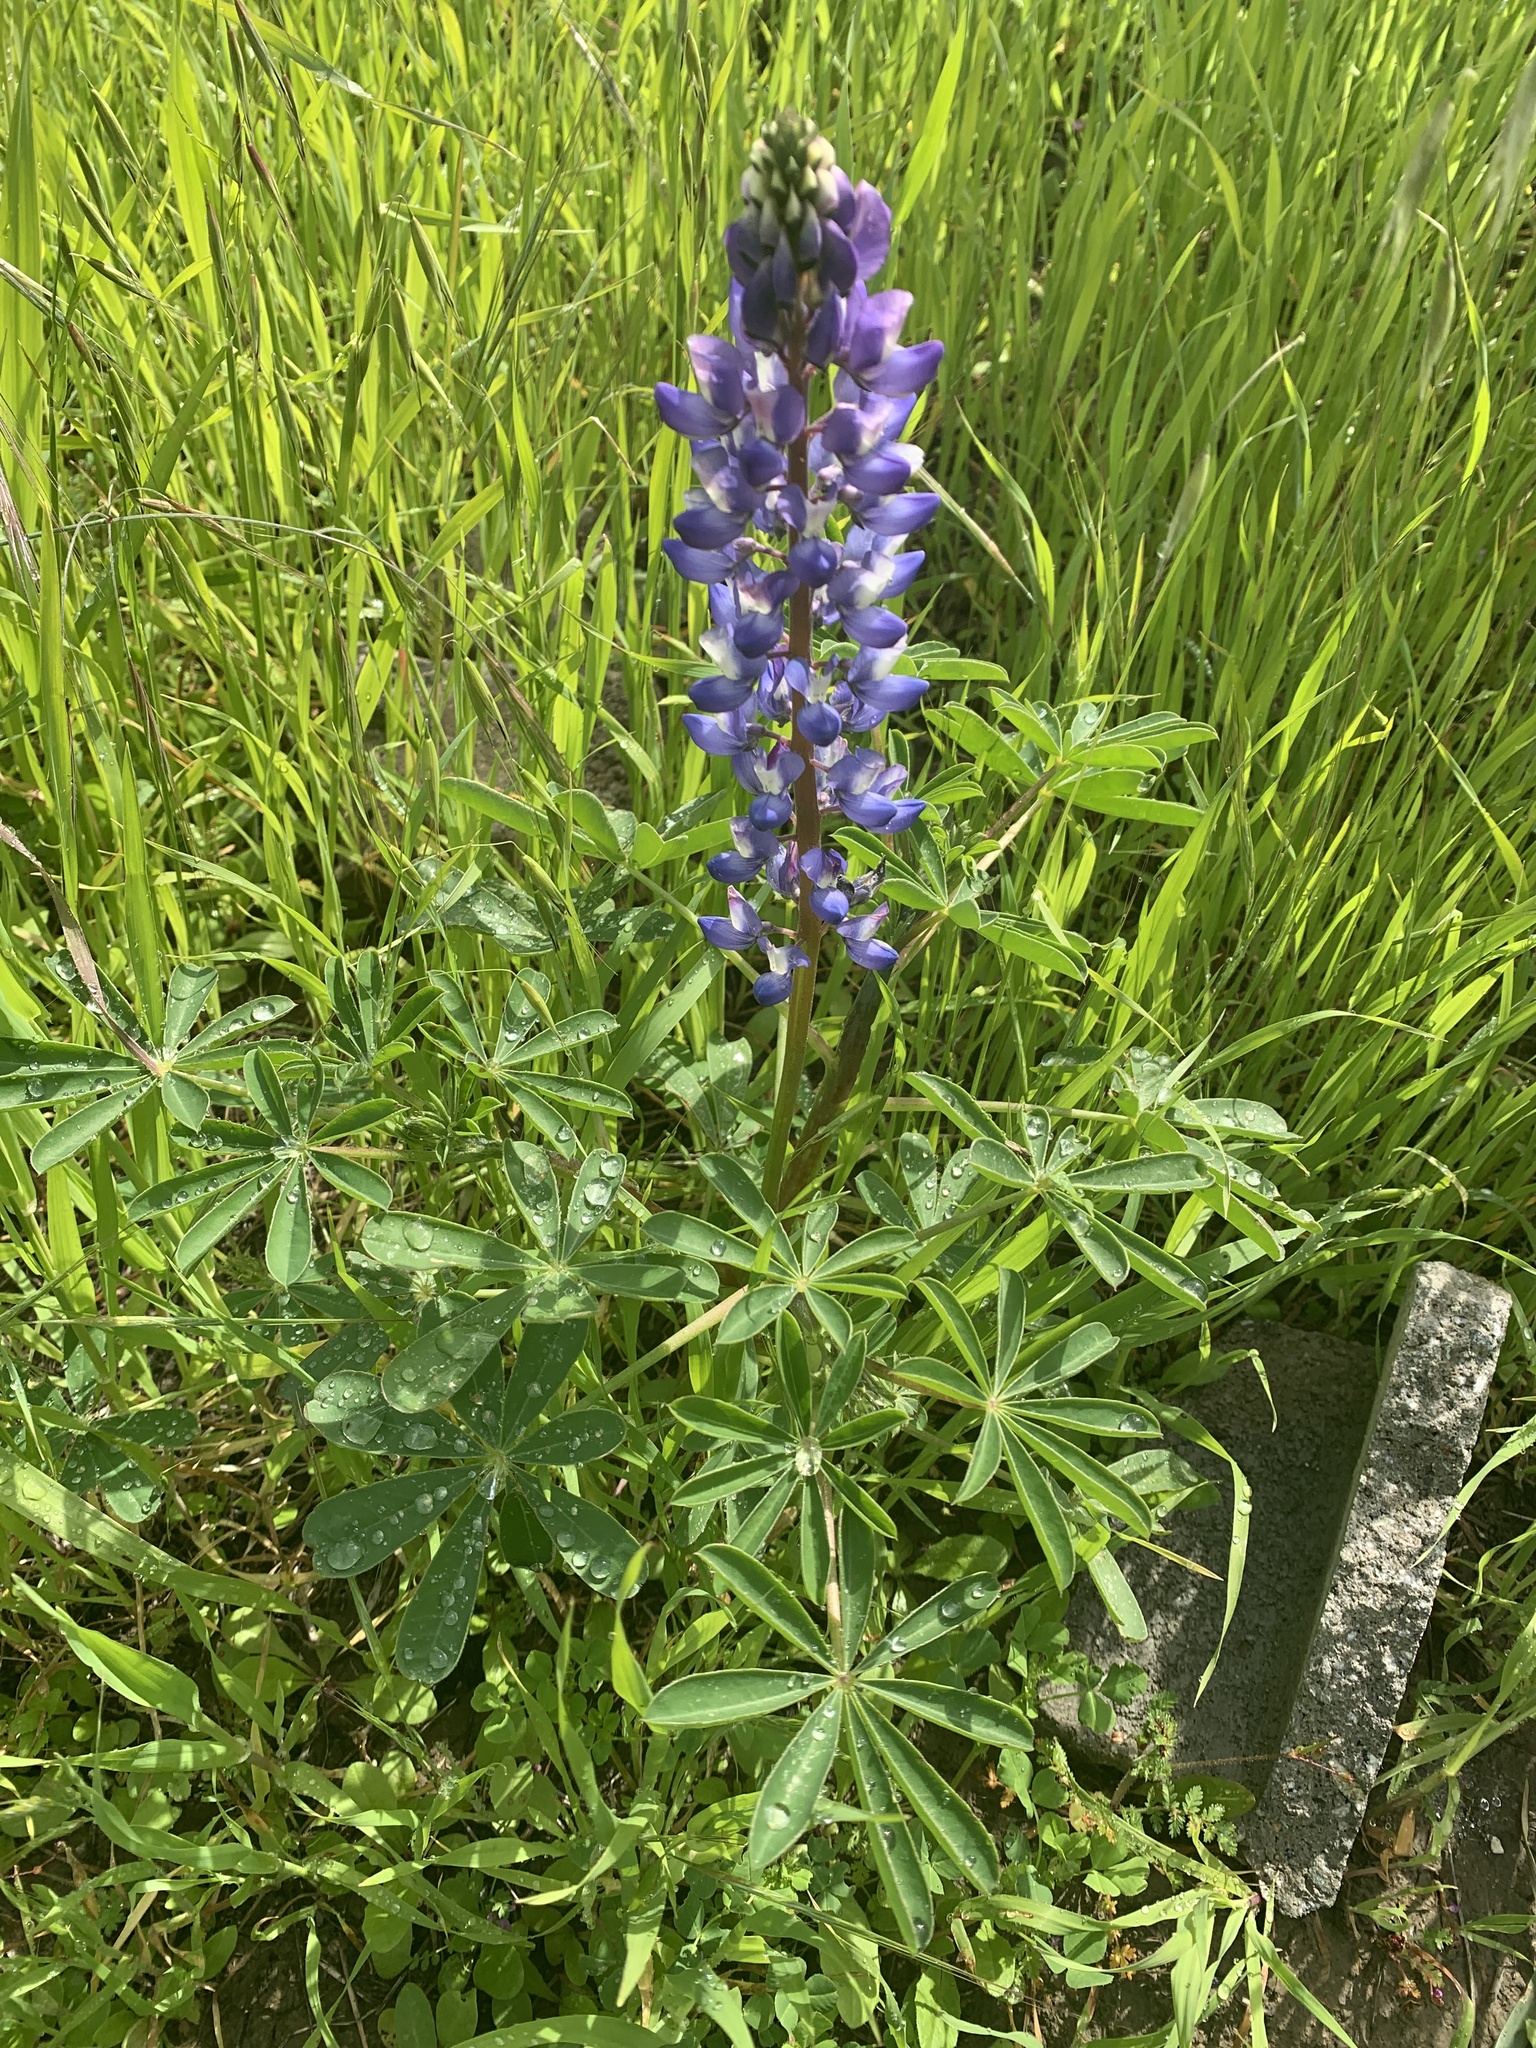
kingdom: Plantae
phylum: Tracheophyta
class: Magnoliopsida
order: Fabales
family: Fabaceae
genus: Lupinus
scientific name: Lupinus succulentus
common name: Arroyo lupine
